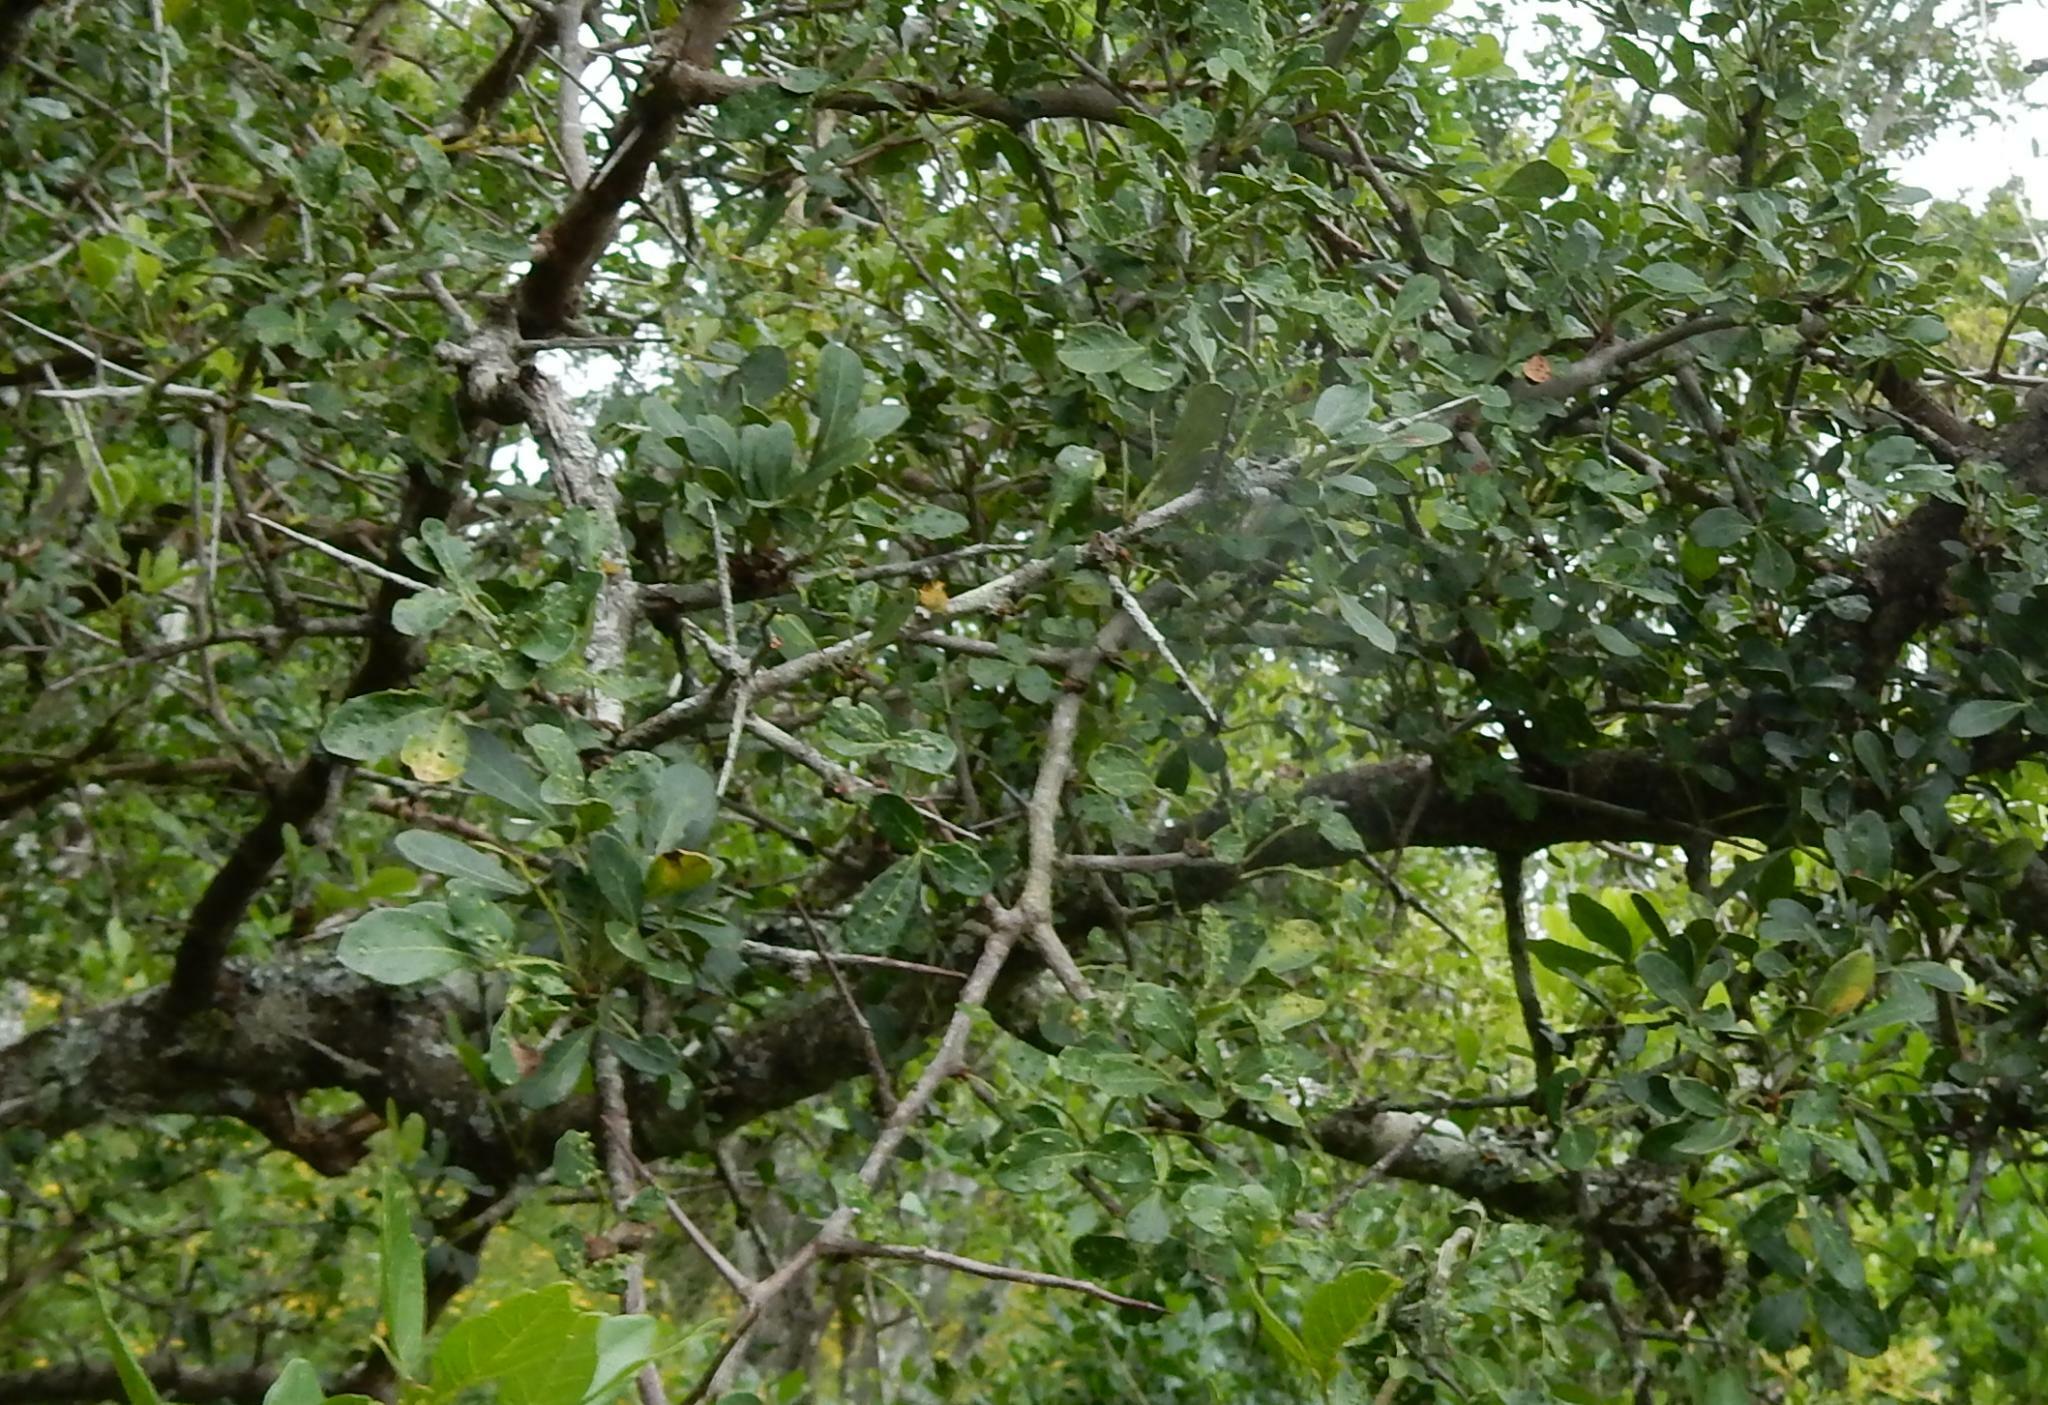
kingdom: Plantae
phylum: Tracheophyta
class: Magnoliopsida
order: Sapindales
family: Anacardiaceae
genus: Searsia
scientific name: Searsia pterota
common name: Winged currant
